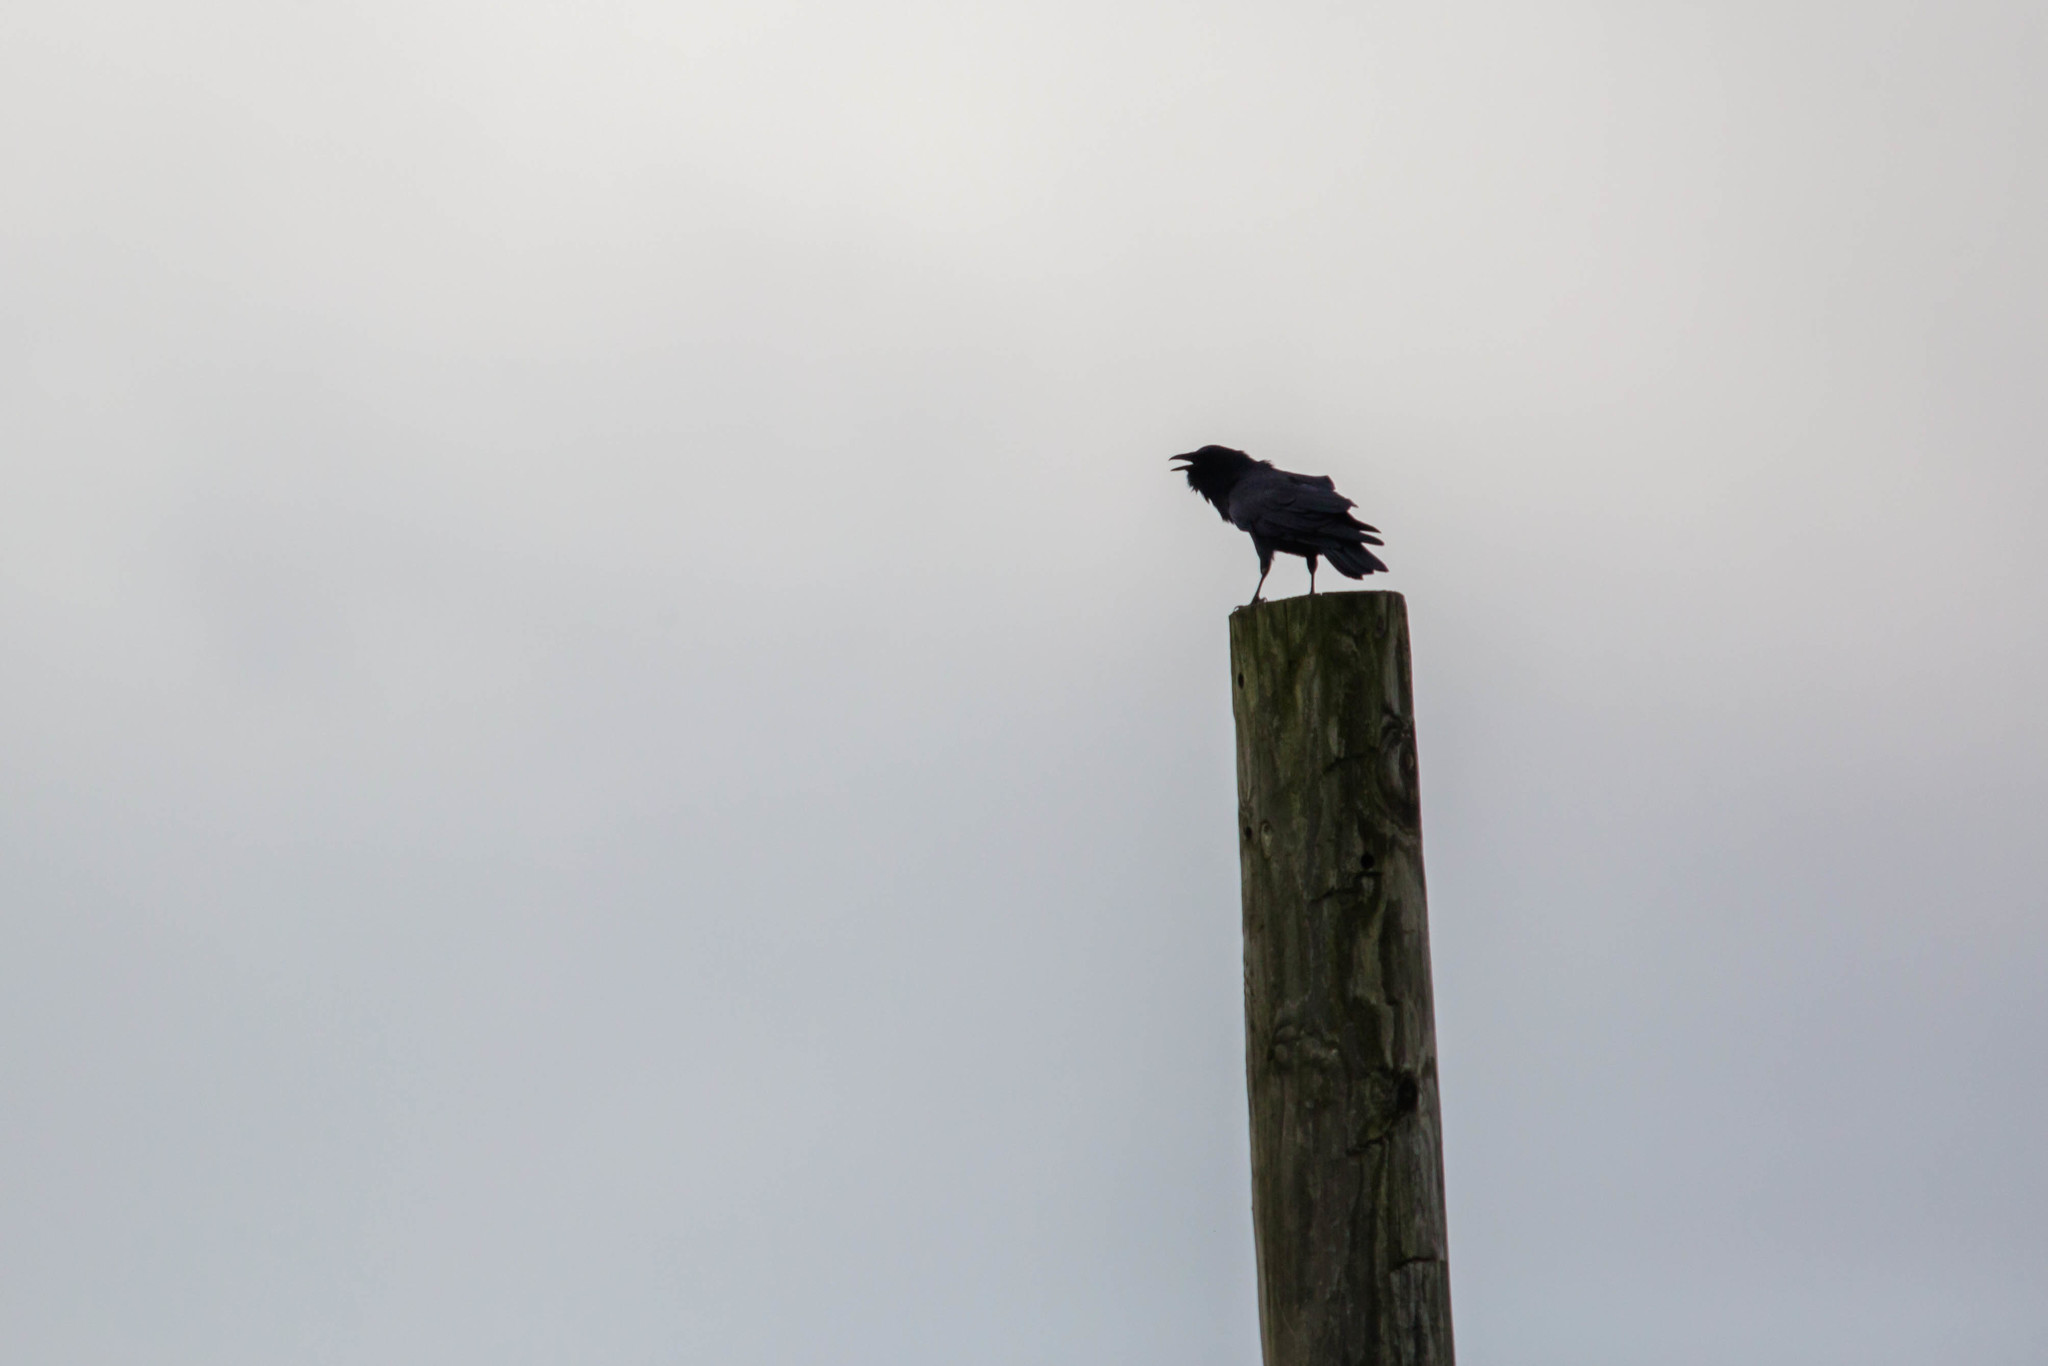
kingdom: Animalia
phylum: Chordata
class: Aves
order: Passeriformes
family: Corvidae
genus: Corvus
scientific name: Corvus ossifragus
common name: Fish crow
